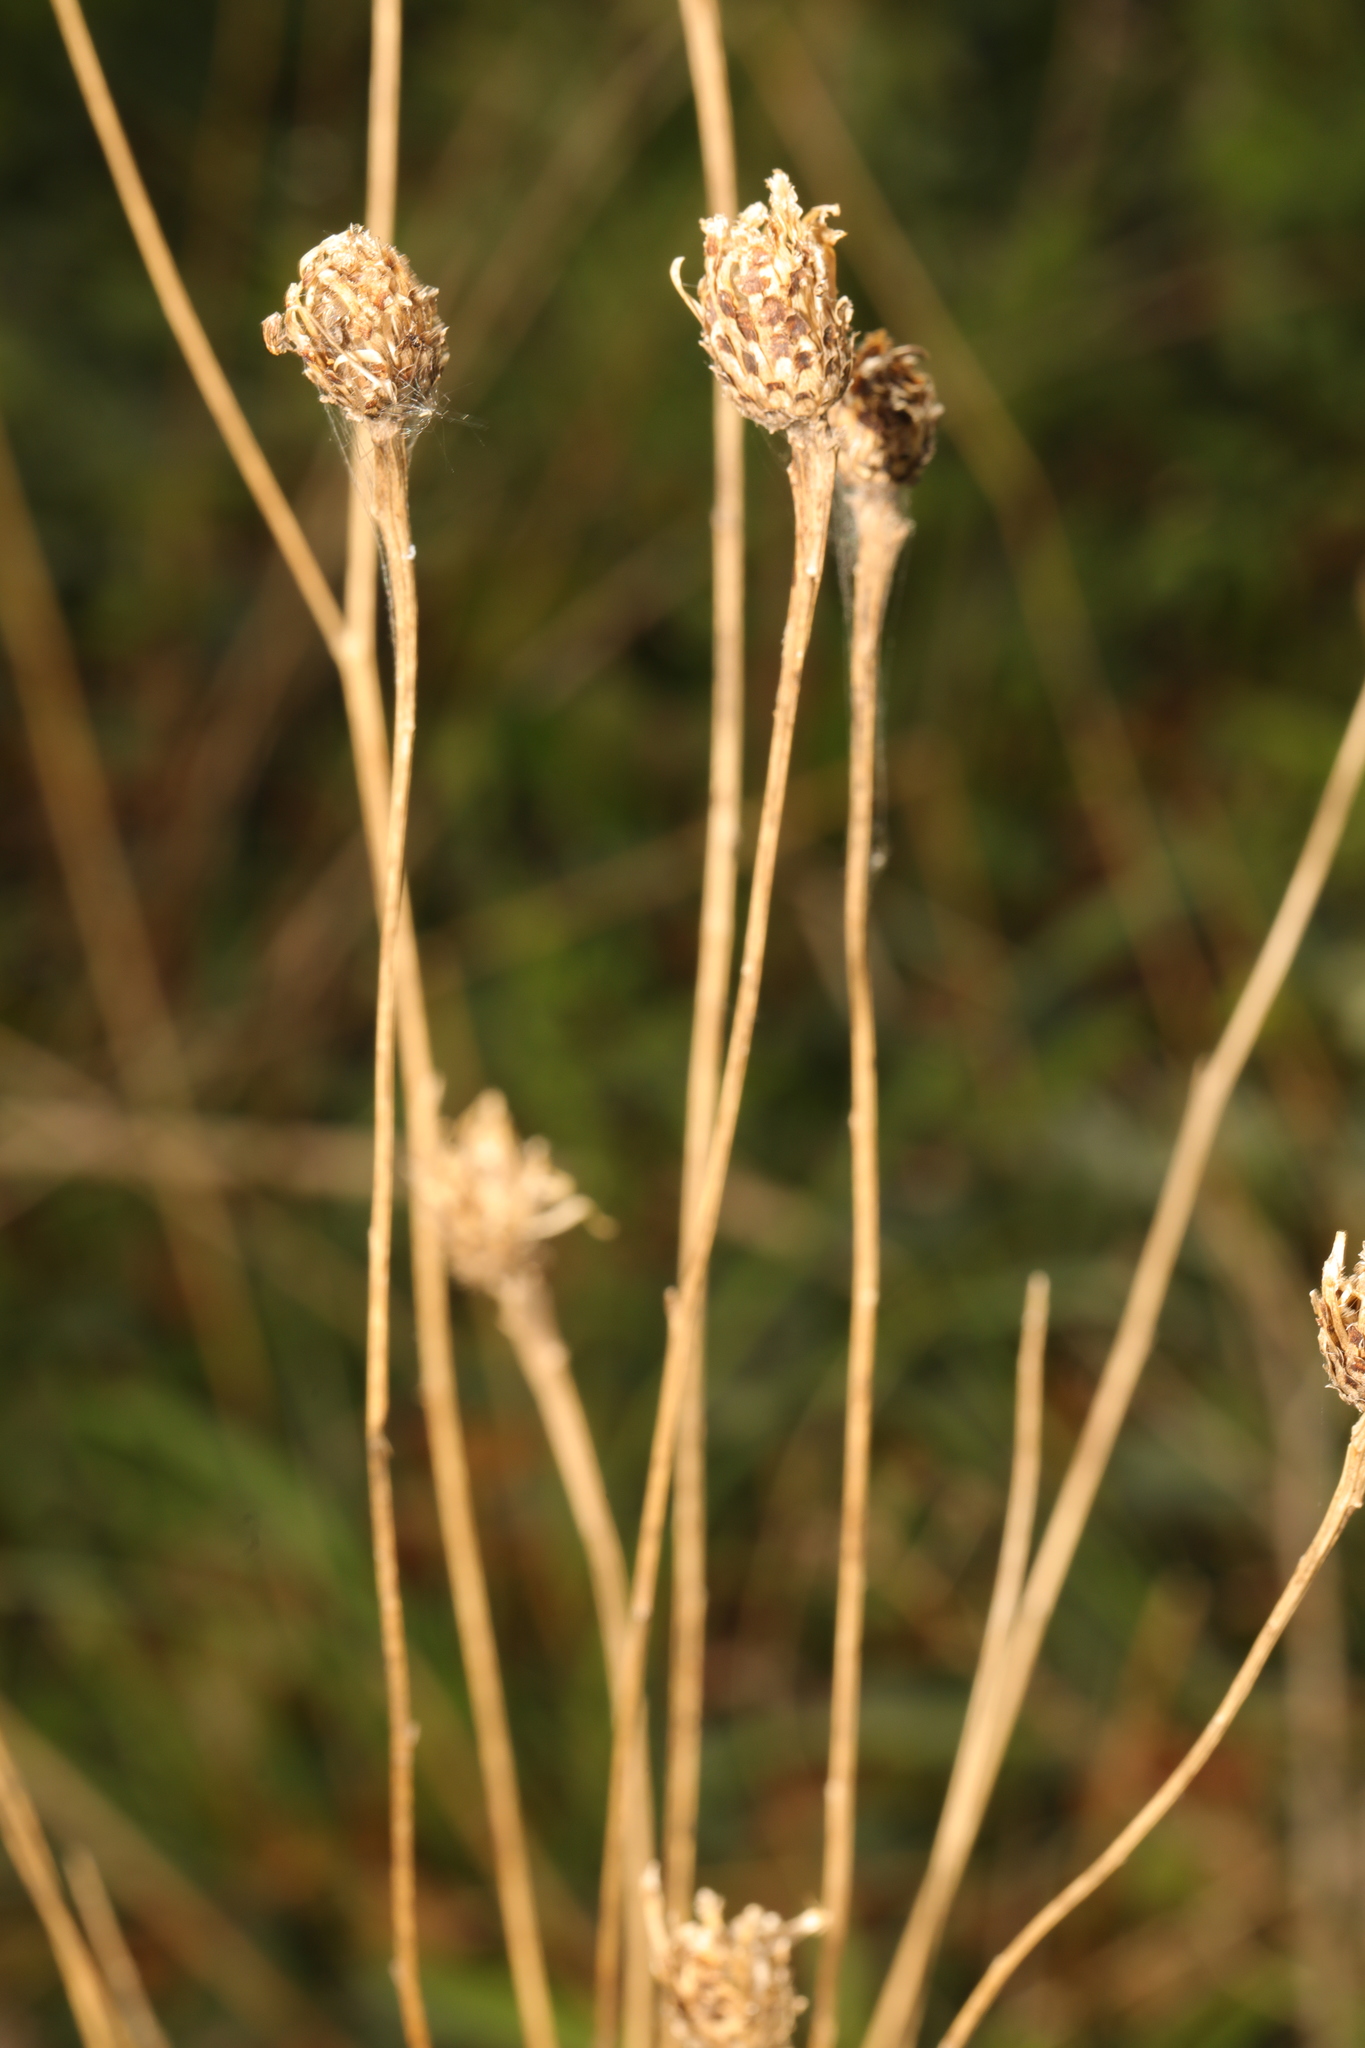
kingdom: Plantae
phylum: Tracheophyta
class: Magnoliopsida
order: Asterales
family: Asteraceae
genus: Centaurea
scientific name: Centaurea nigra
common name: Lesser knapweed
